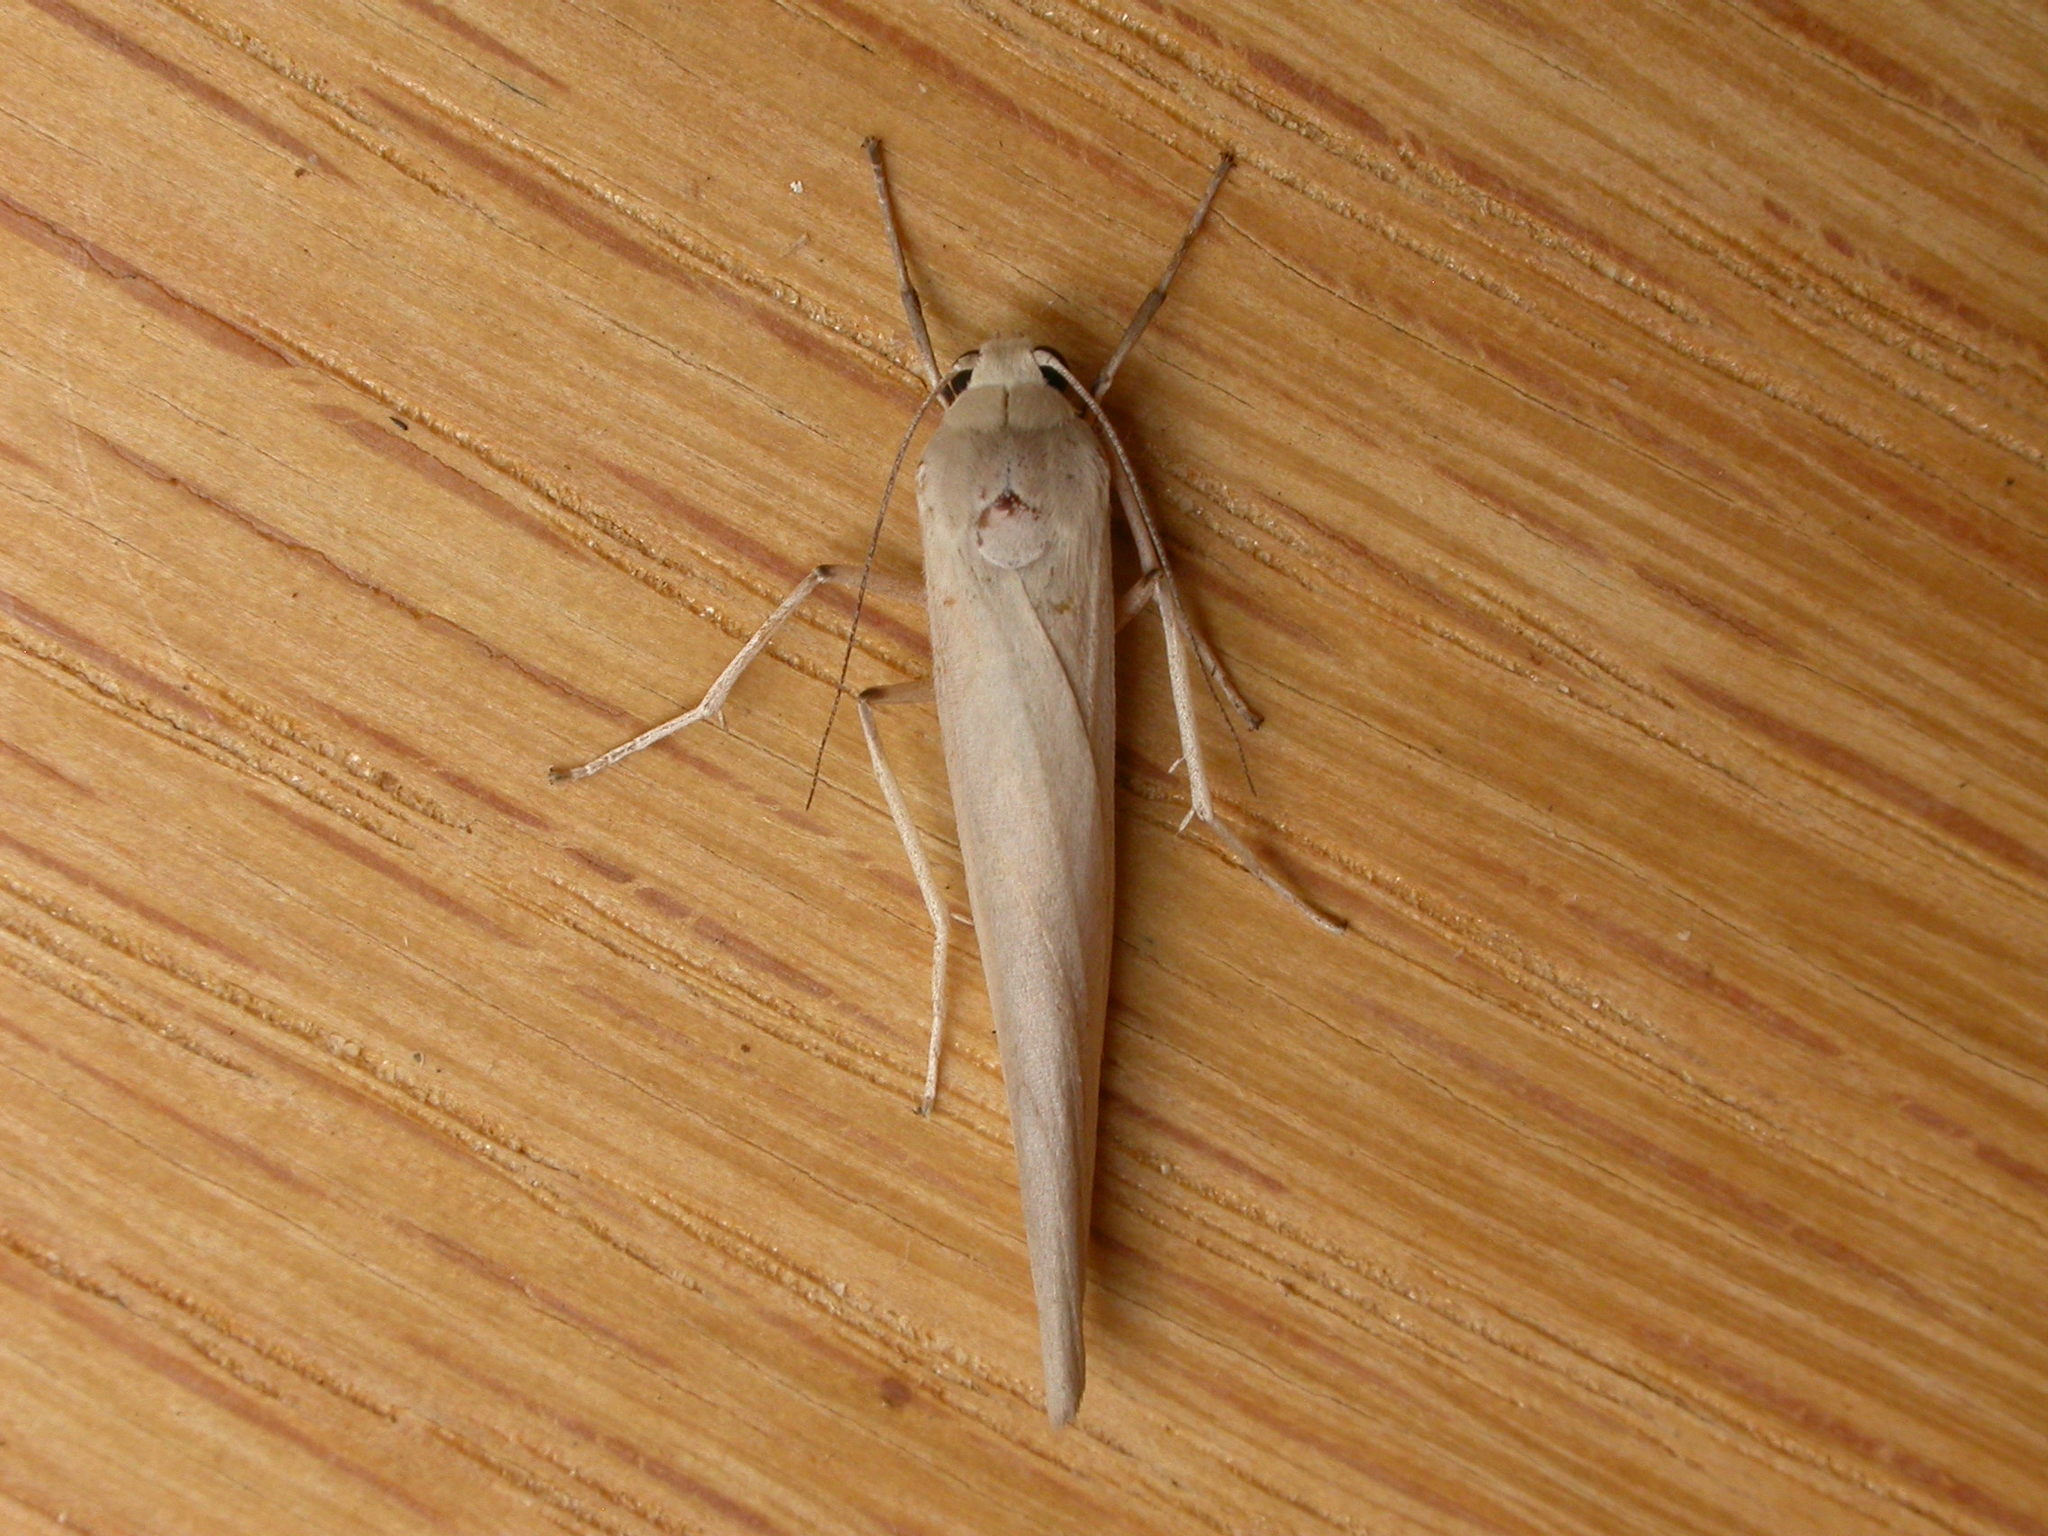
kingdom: Animalia
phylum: Arthropoda
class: Insecta
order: Lepidoptera
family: Erebidae
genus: Calamidia
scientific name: Calamidia hirta
